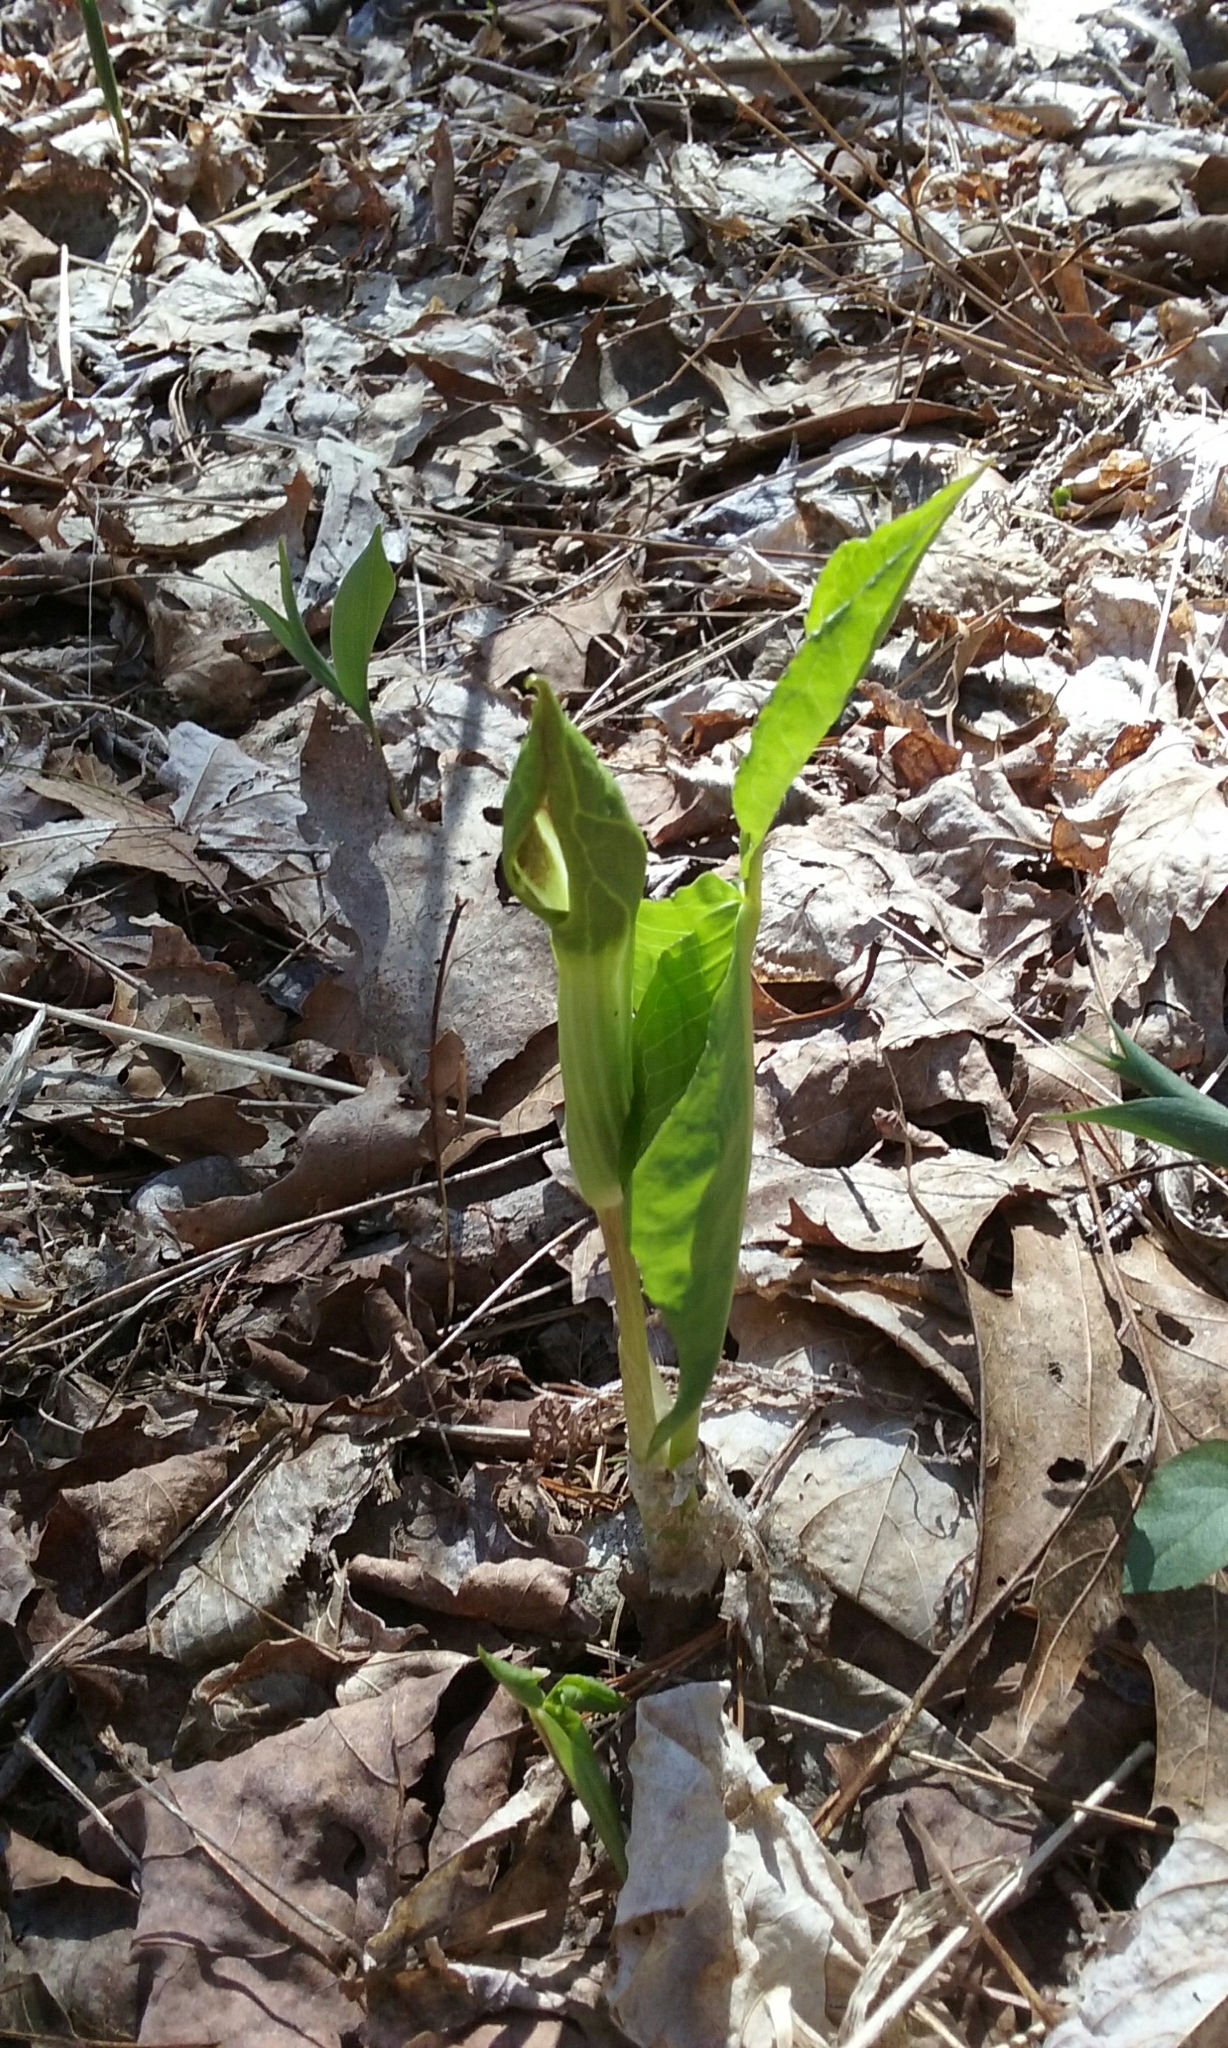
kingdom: Plantae
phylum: Tracheophyta
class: Liliopsida
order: Alismatales
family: Araceae
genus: Arisaema
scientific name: Arisaema triphyllum
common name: Jack-in-the-pulpit
